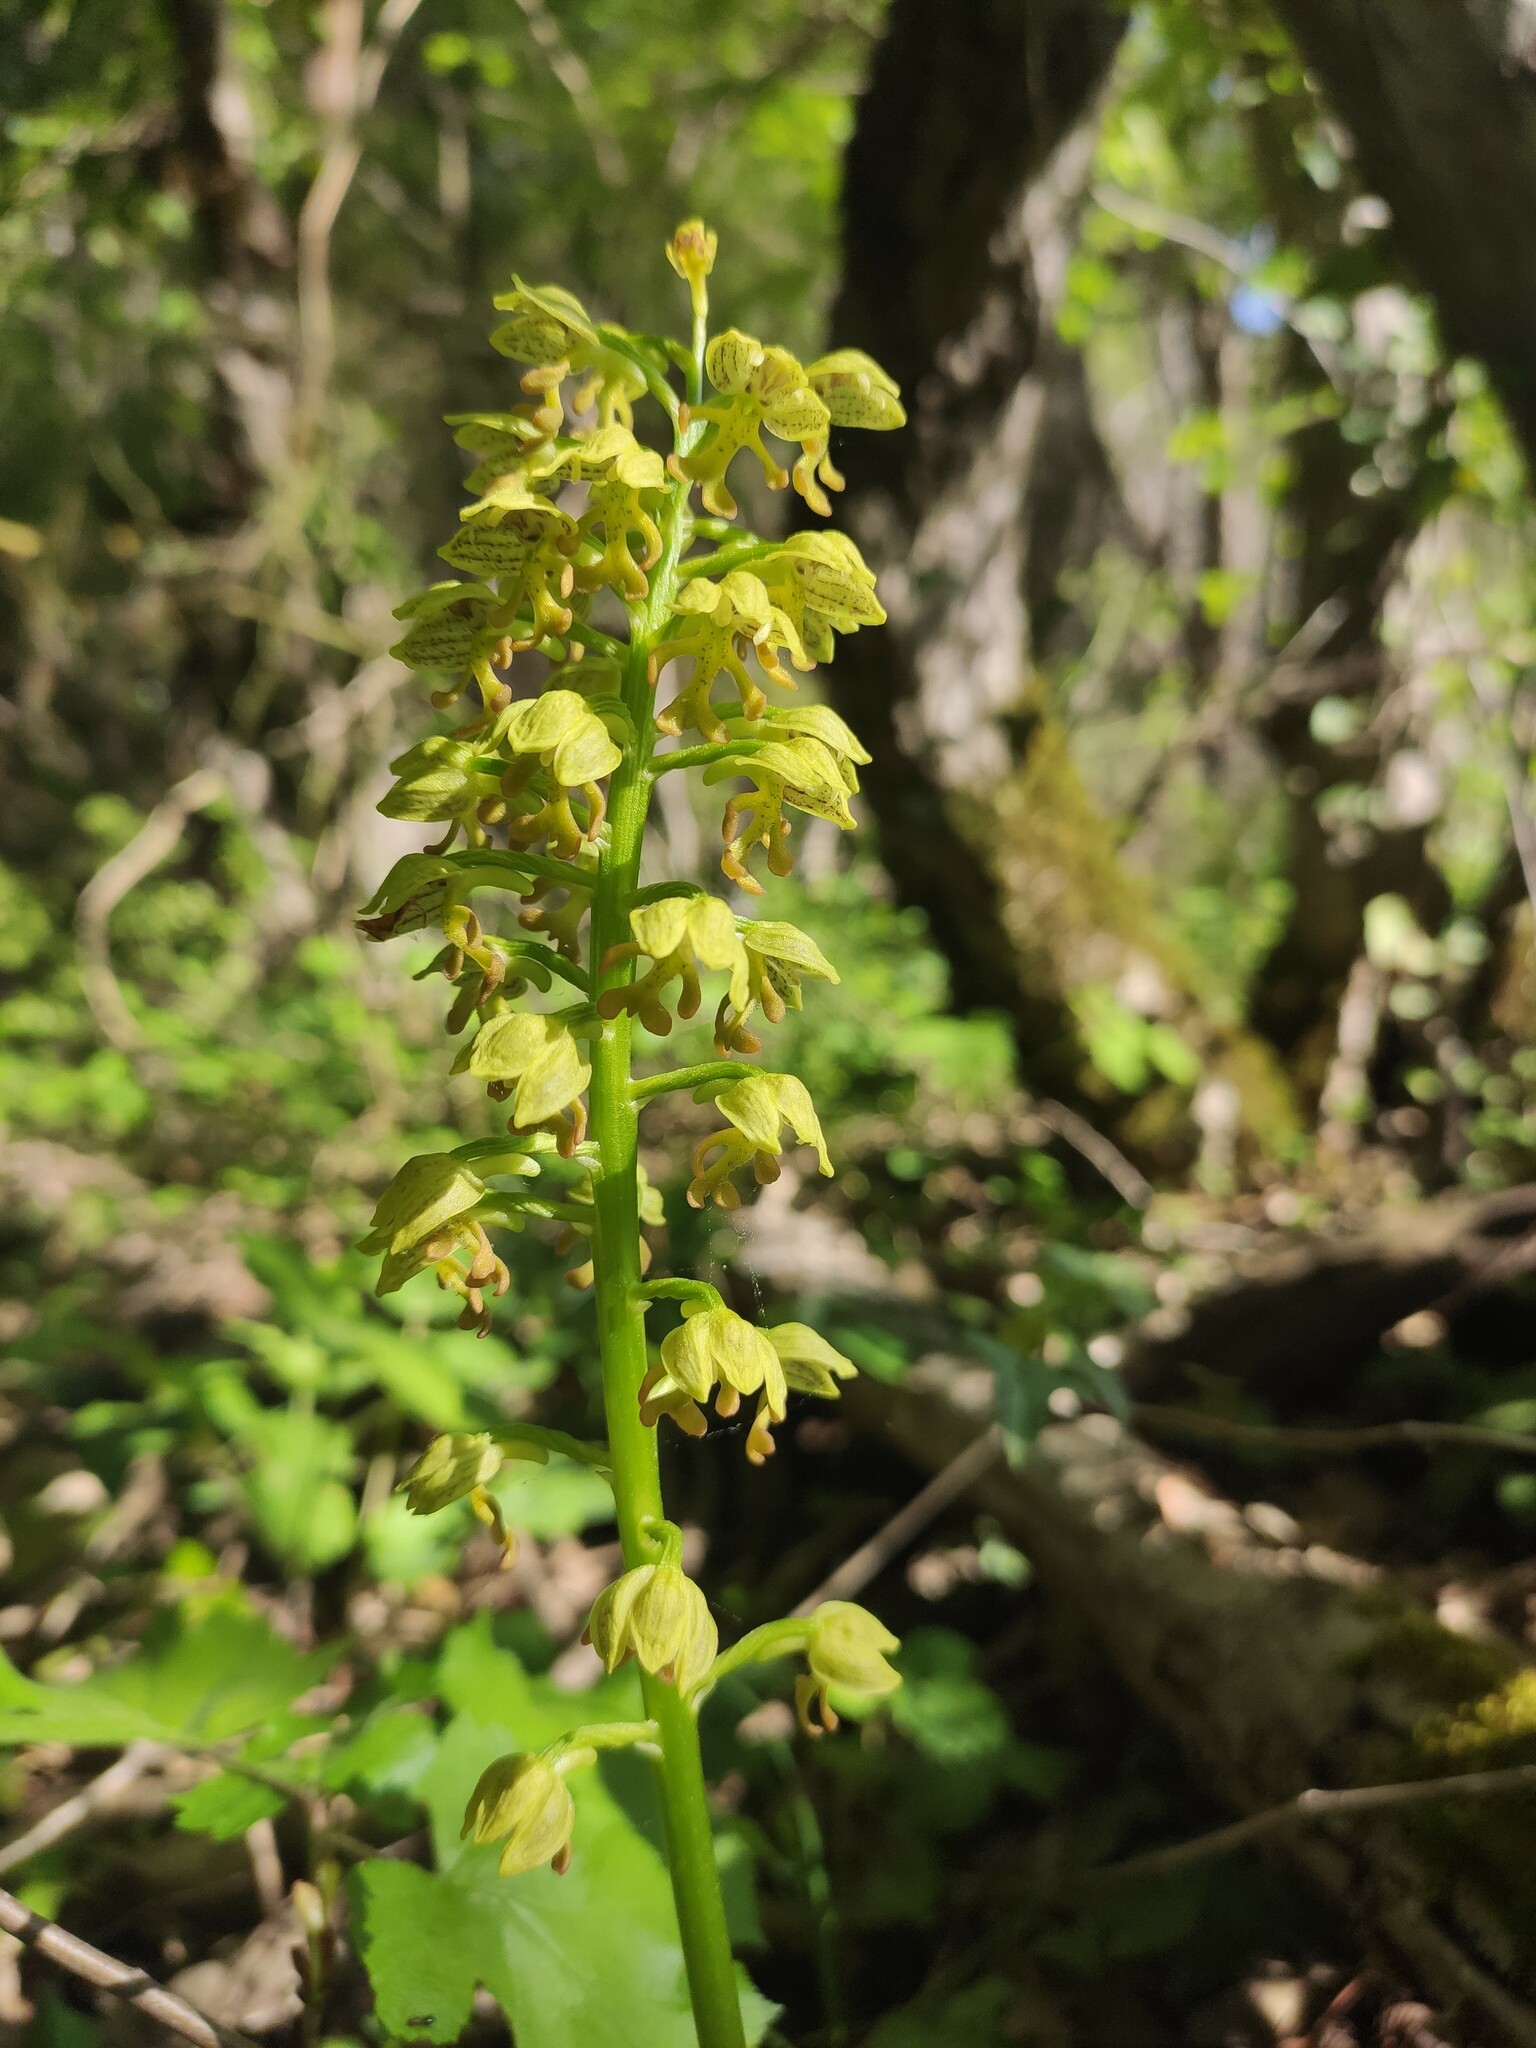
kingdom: Plantae
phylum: Tracheophyta
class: Liliopsida
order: Asparagales
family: Orchidaceae
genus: Orchis
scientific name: Orchis punctulata
